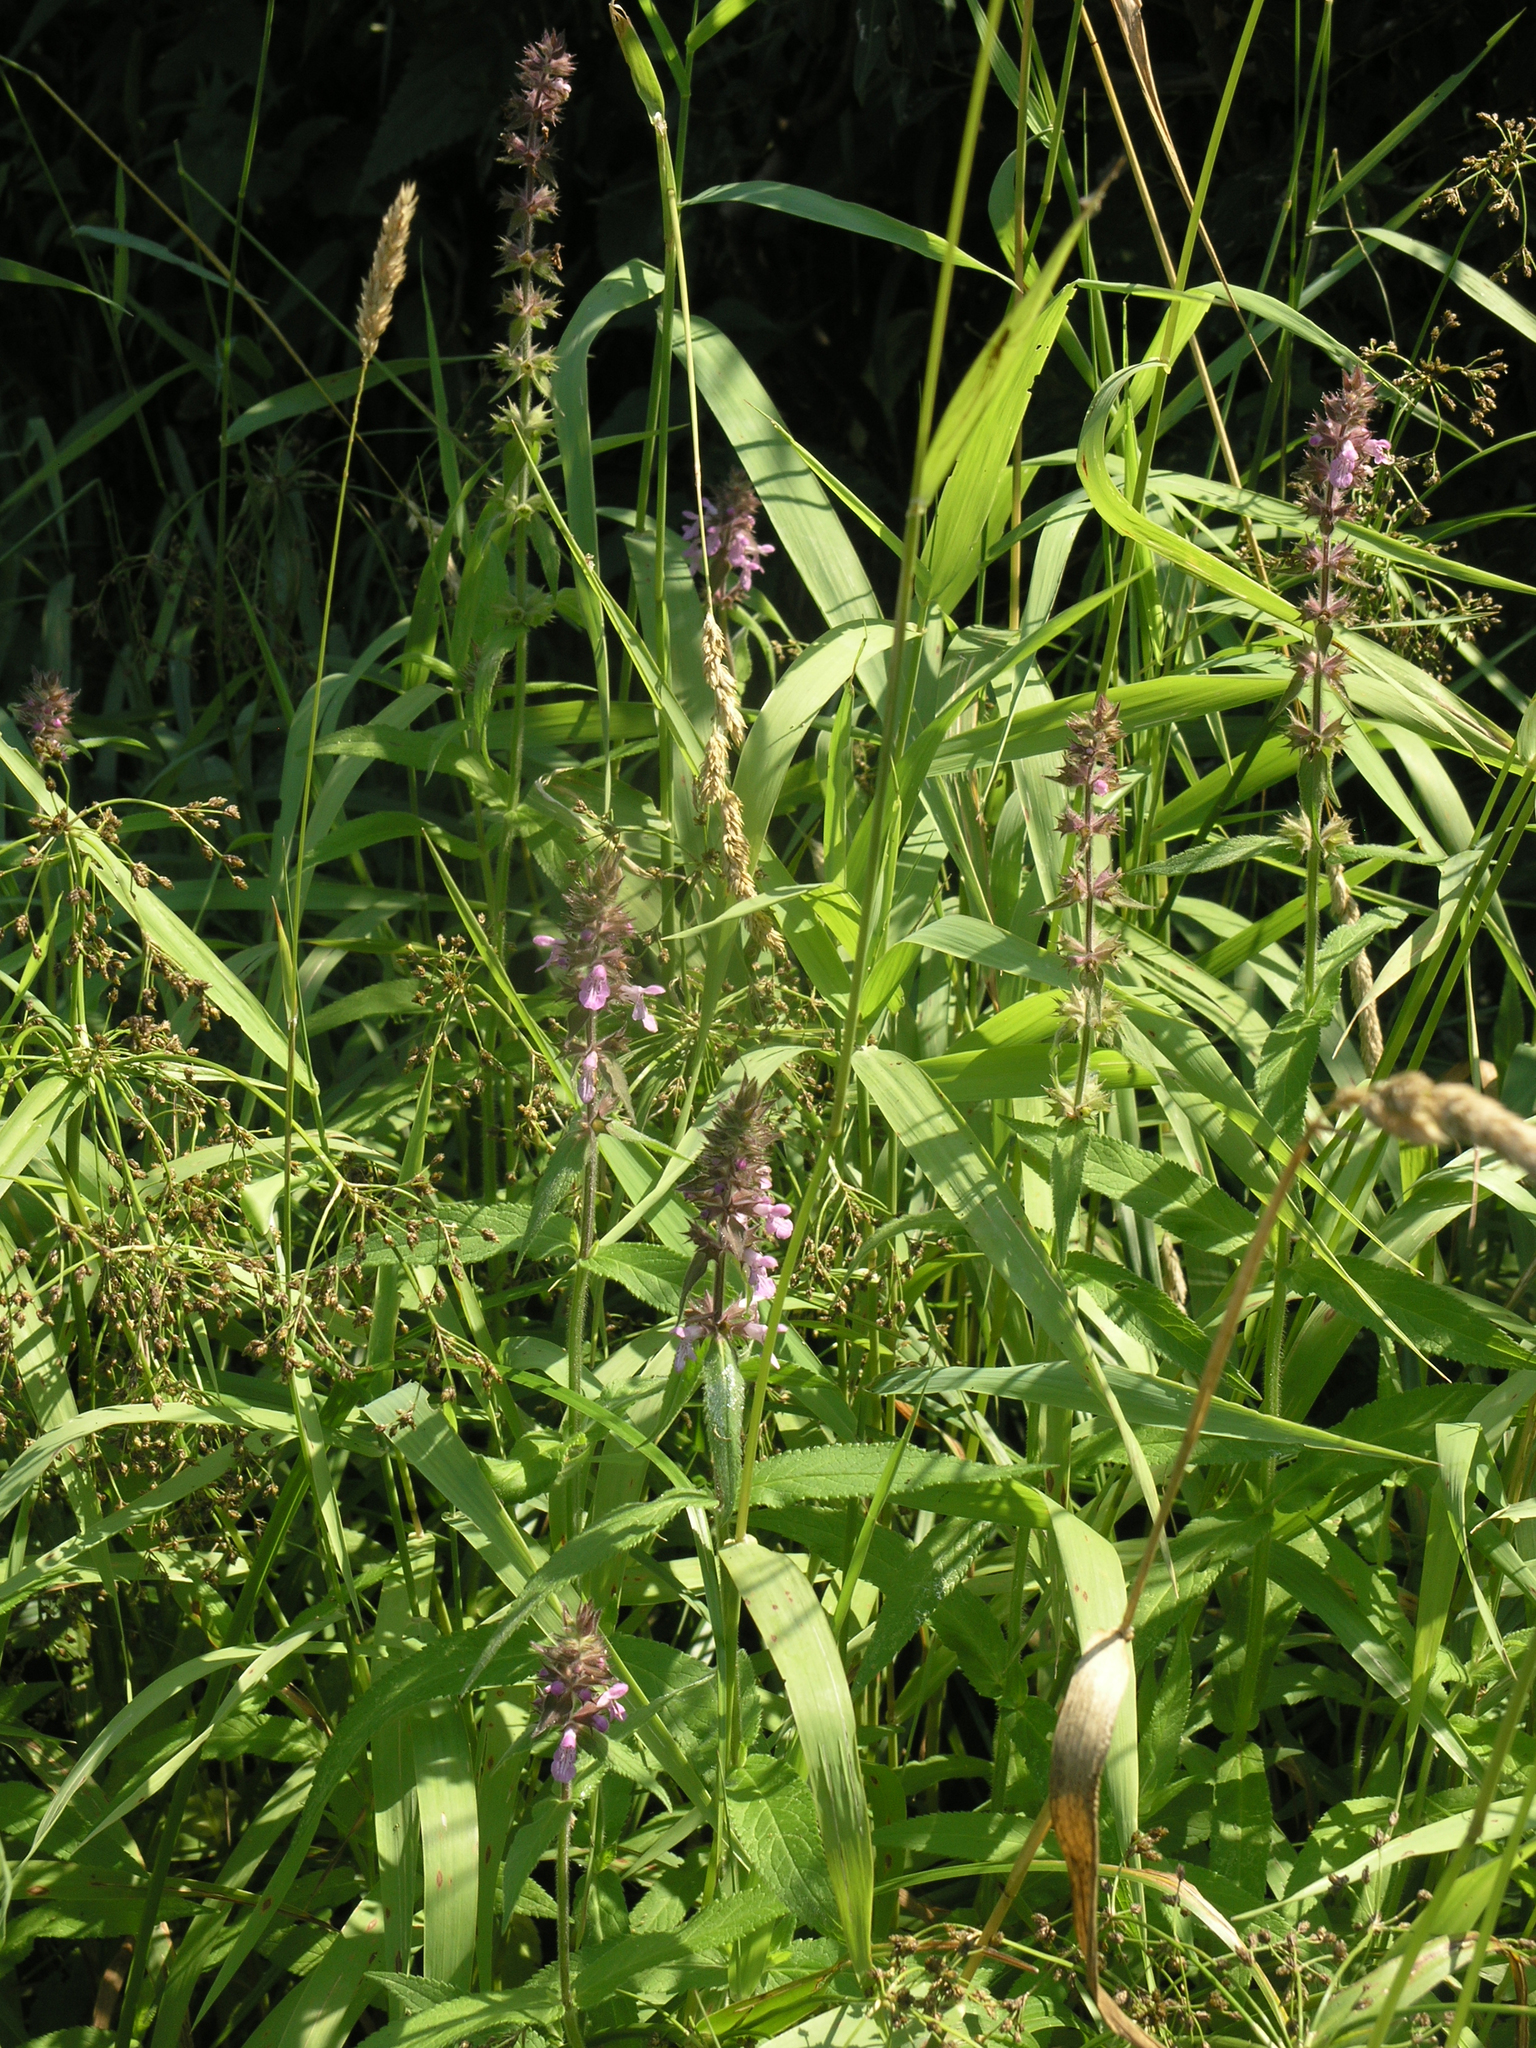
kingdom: Plantae
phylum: Tracheophyta
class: Magnoliopsida
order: Lamiales
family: Lamiaceae
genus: Stachys
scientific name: Stachys palustris
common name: Marsh woundwort
